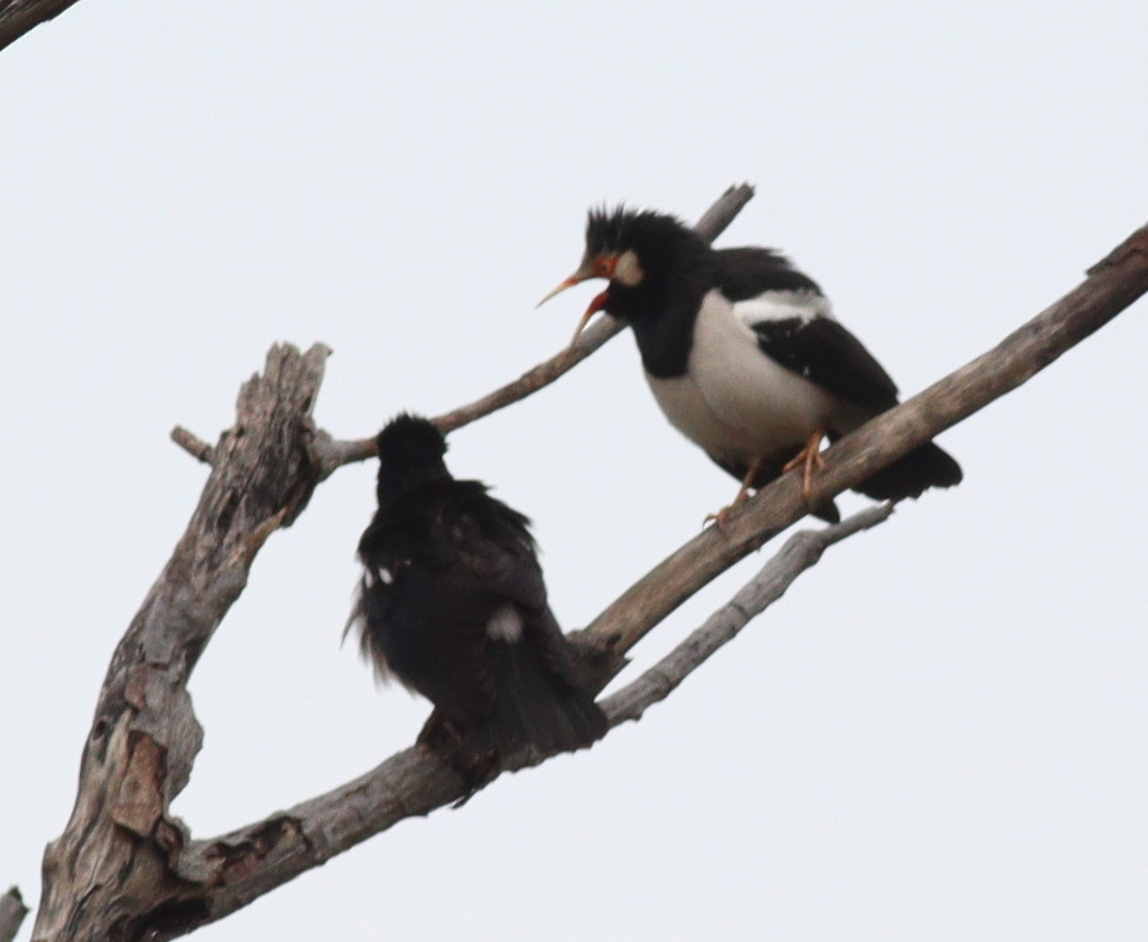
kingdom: Animalia
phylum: Chordata
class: Aves
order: Passeriformes
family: Sturnidae
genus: Gracupica
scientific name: Gracupica contra
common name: Pied myna
